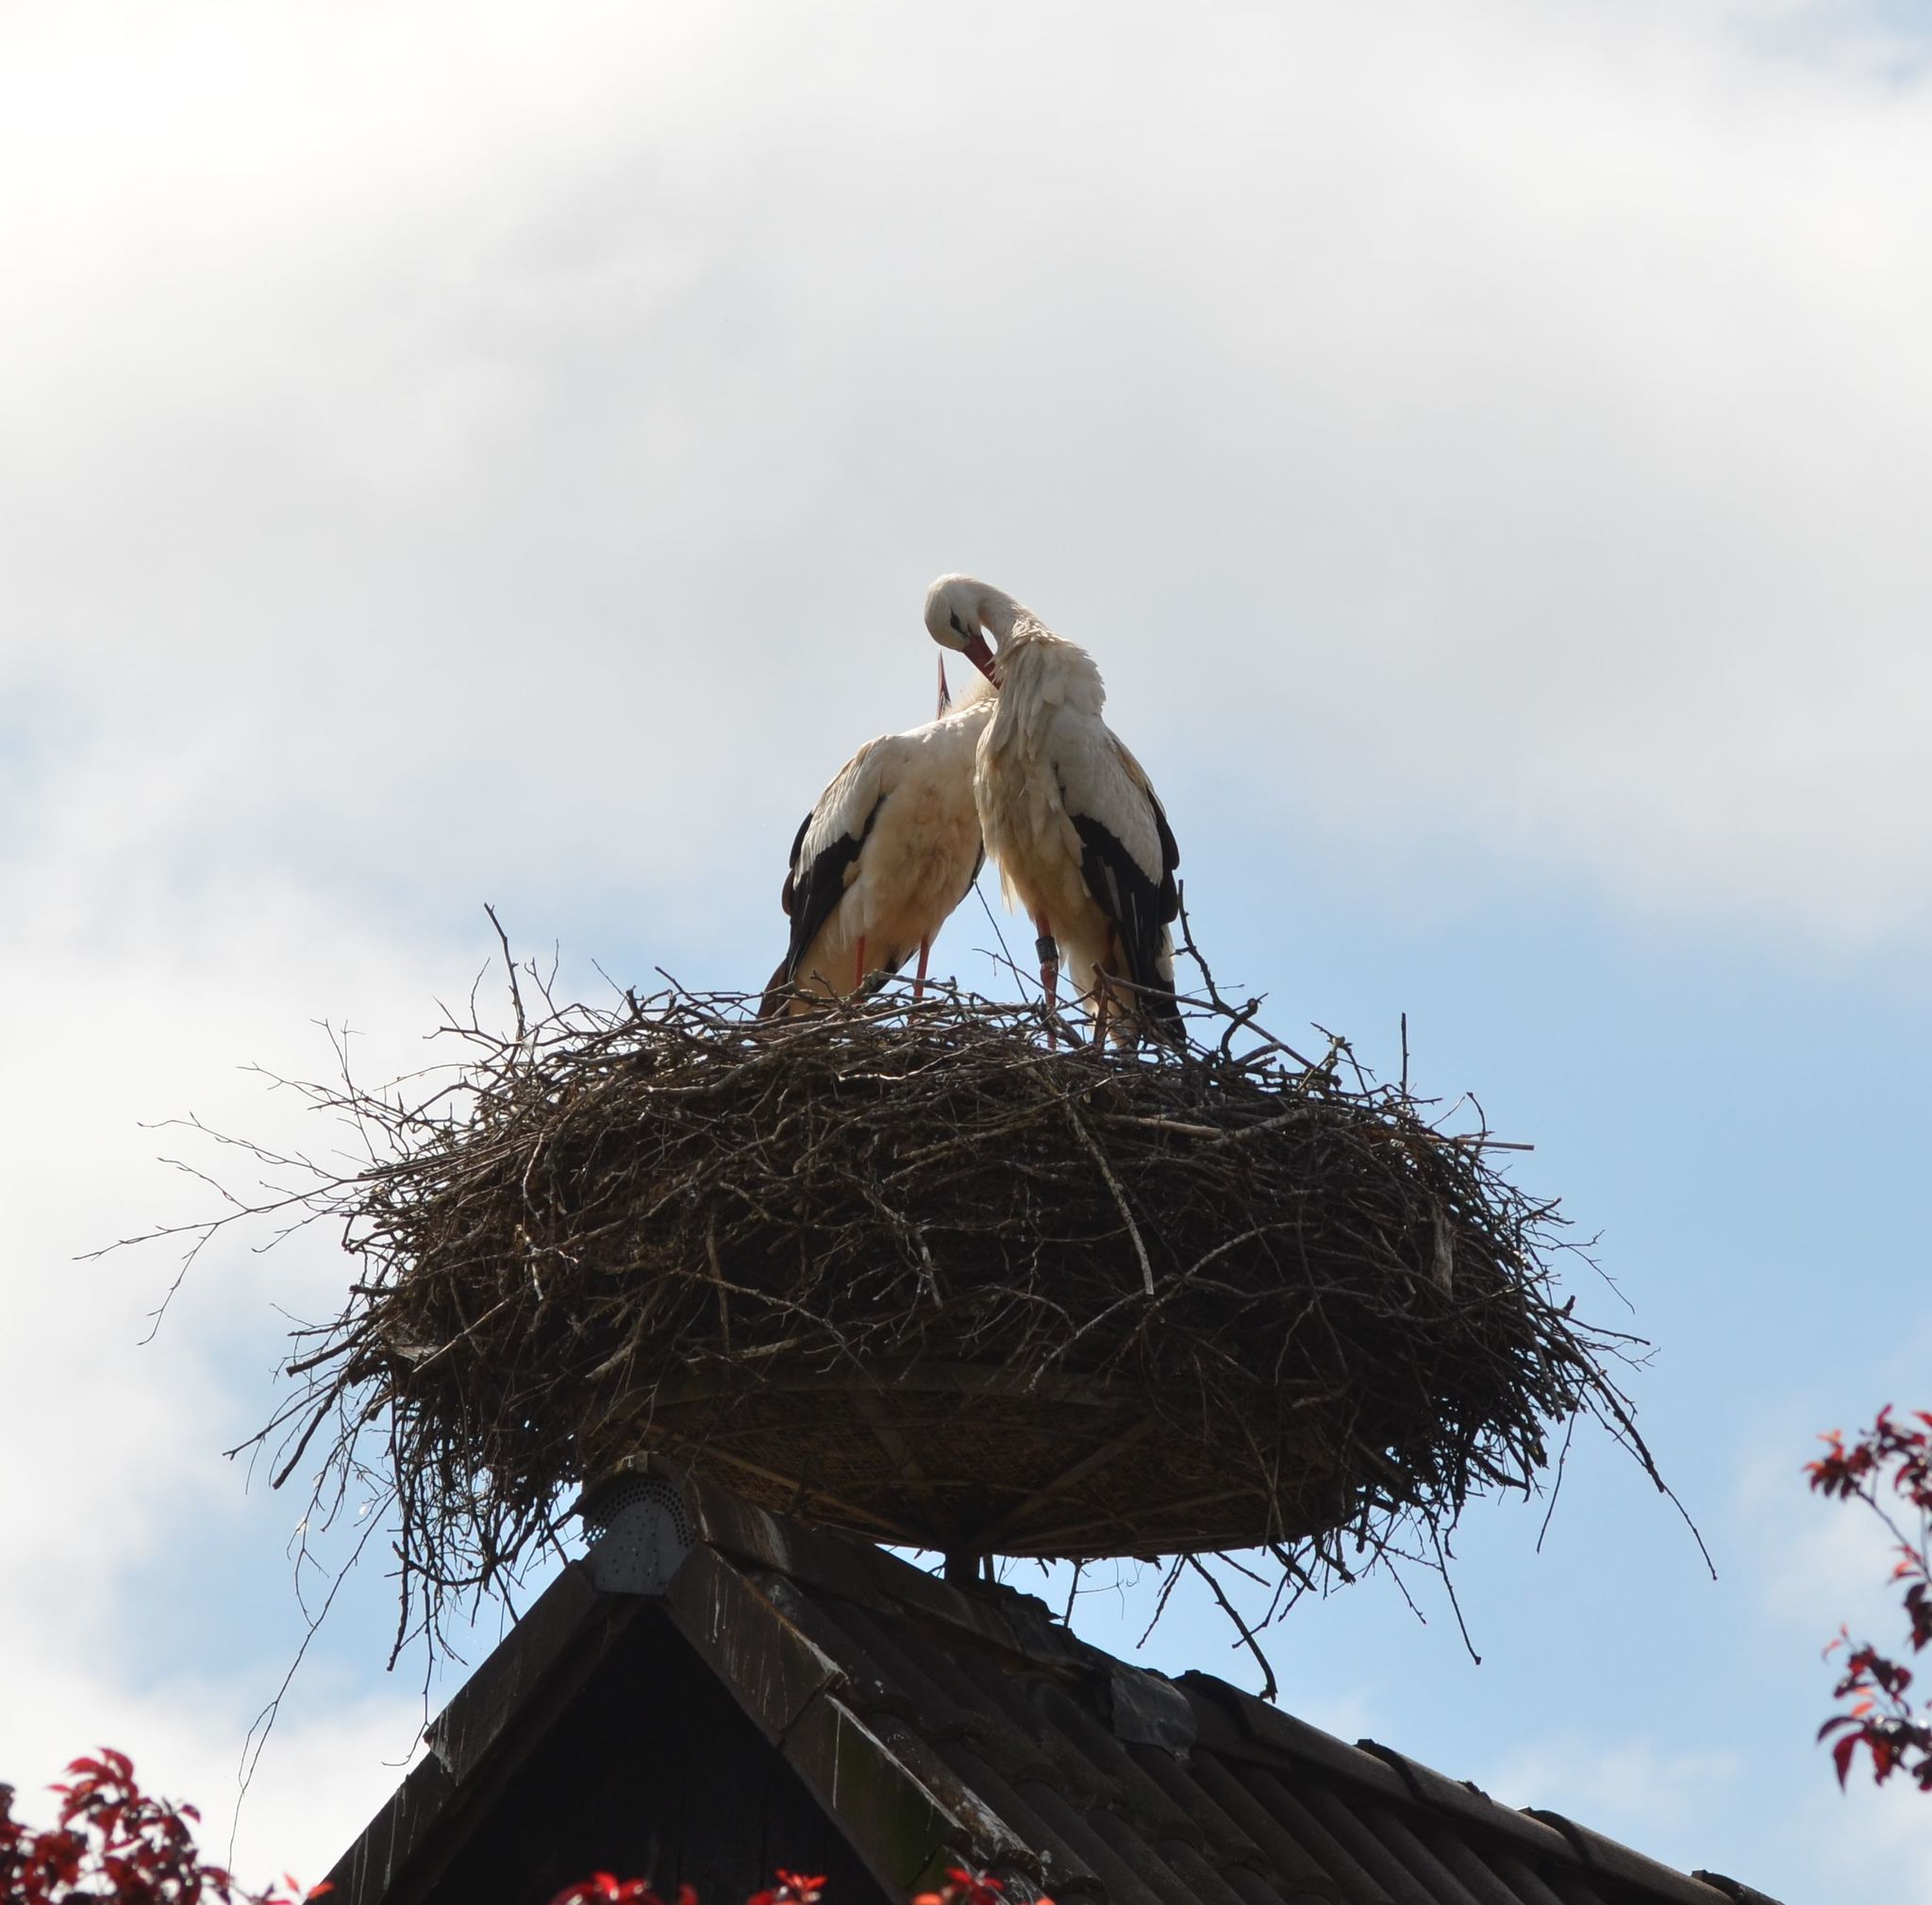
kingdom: Animalia
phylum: Chordata
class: Aves
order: Ciconiiformes
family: Ciconiidae
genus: Ciconia
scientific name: Ciconia ciconia
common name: White stork
